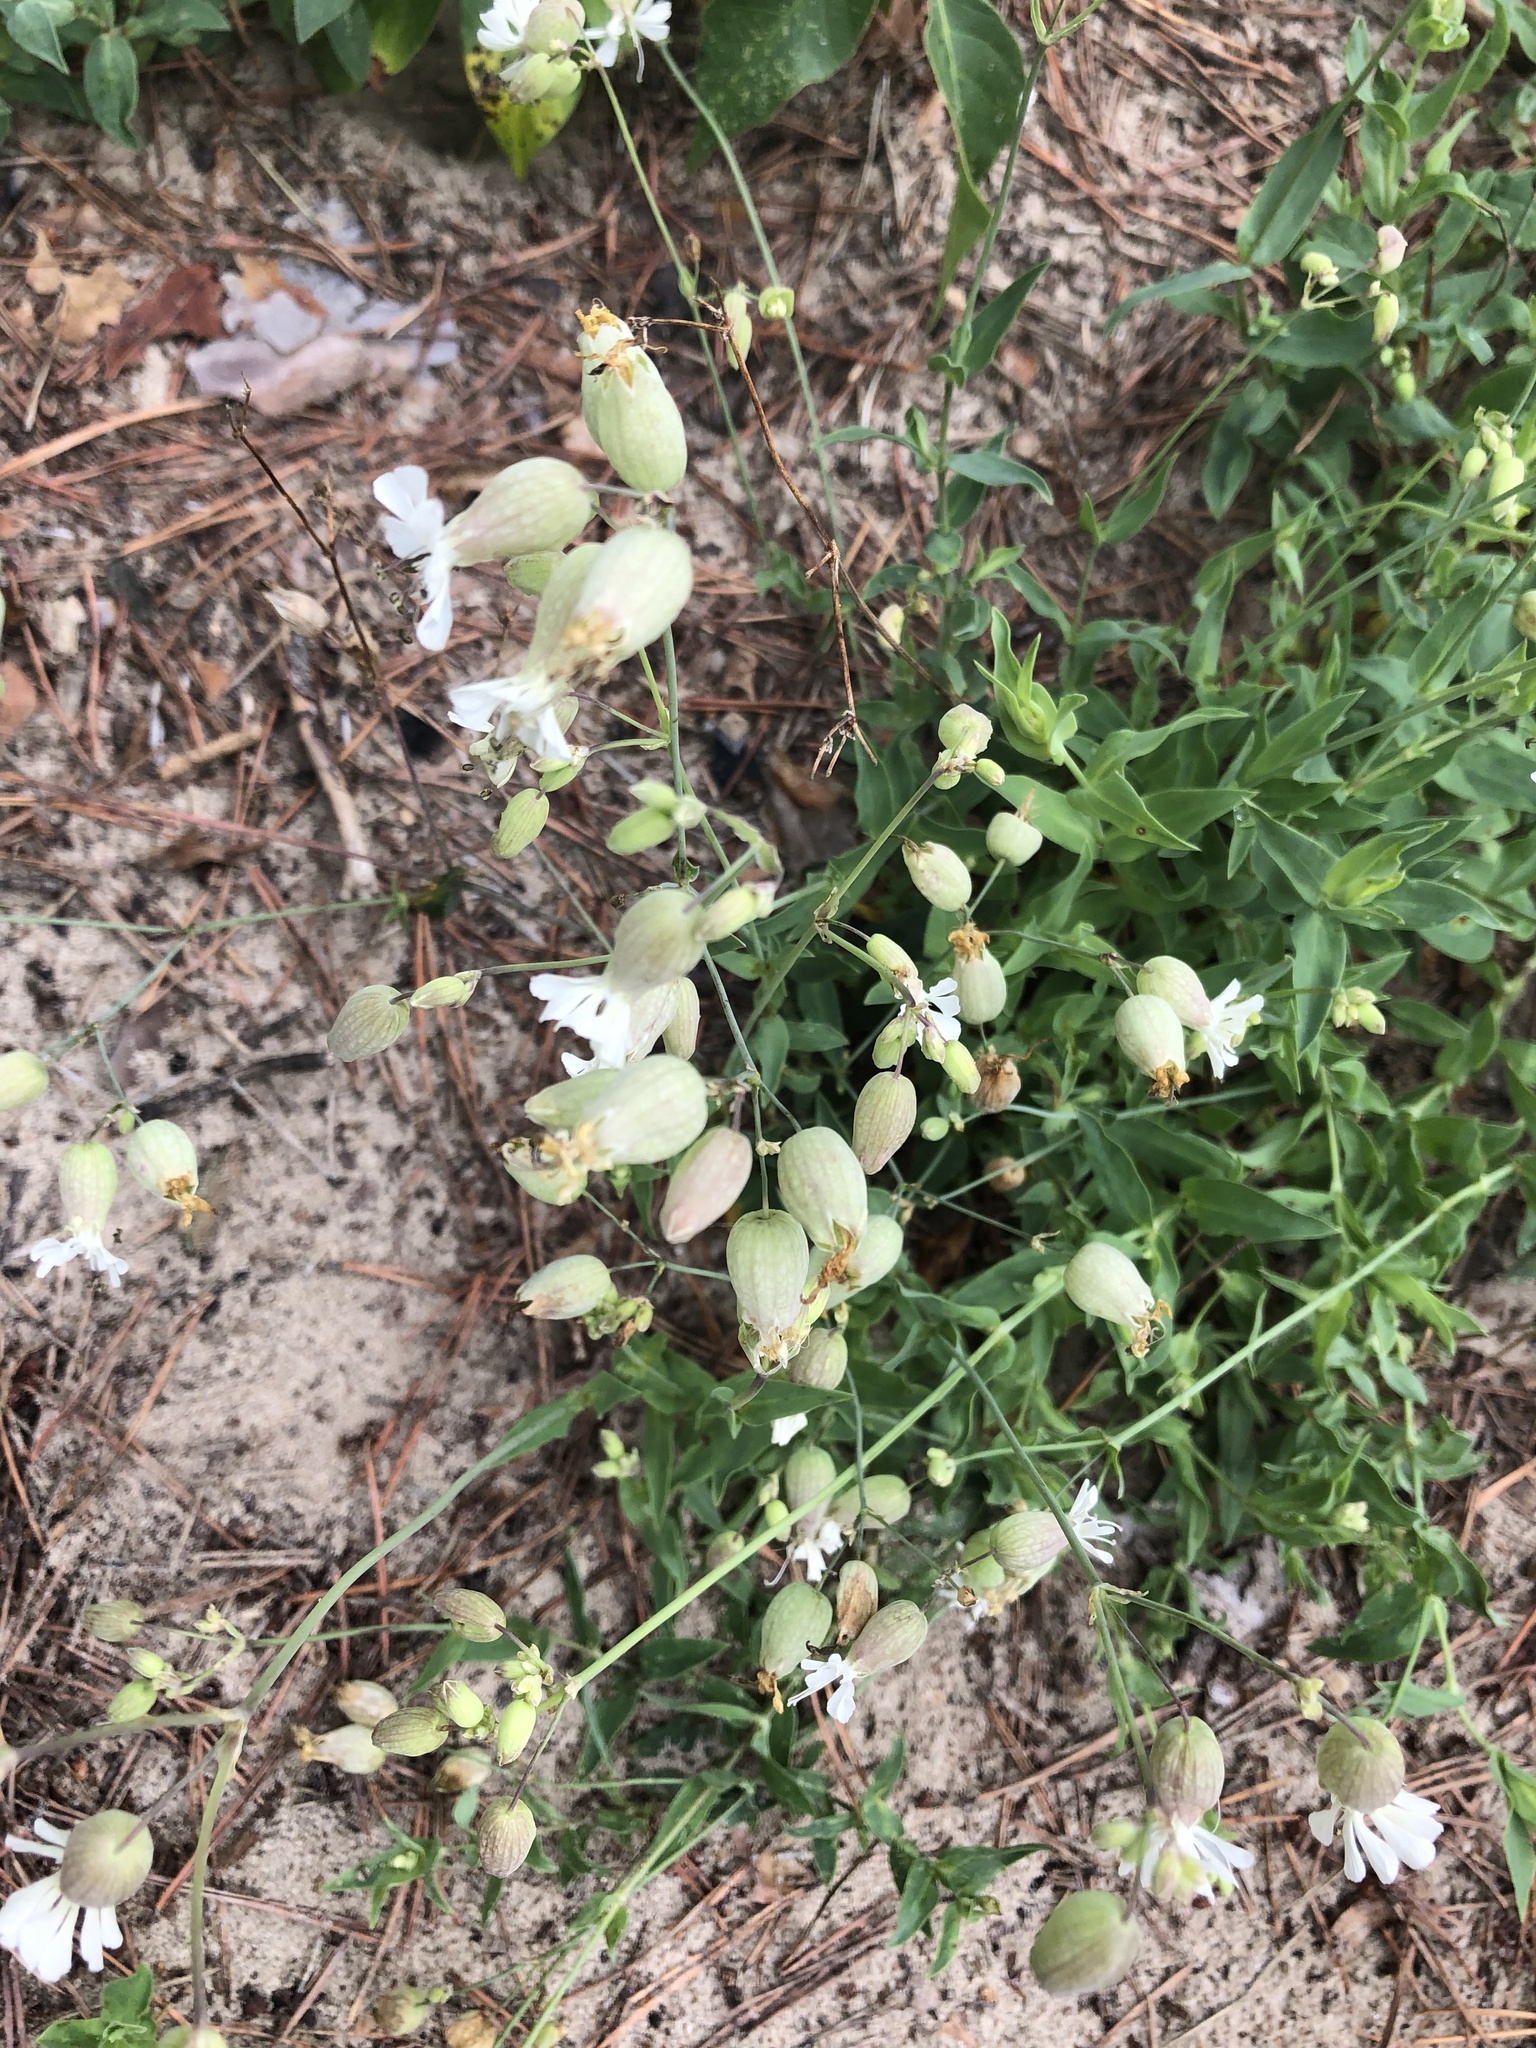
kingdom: Plantae
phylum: Tracheophyta
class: Magnoliopsida
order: Caryophyllales
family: Caryophyllaceae
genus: Silene
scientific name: Silene vulgaris
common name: Bladder campion
